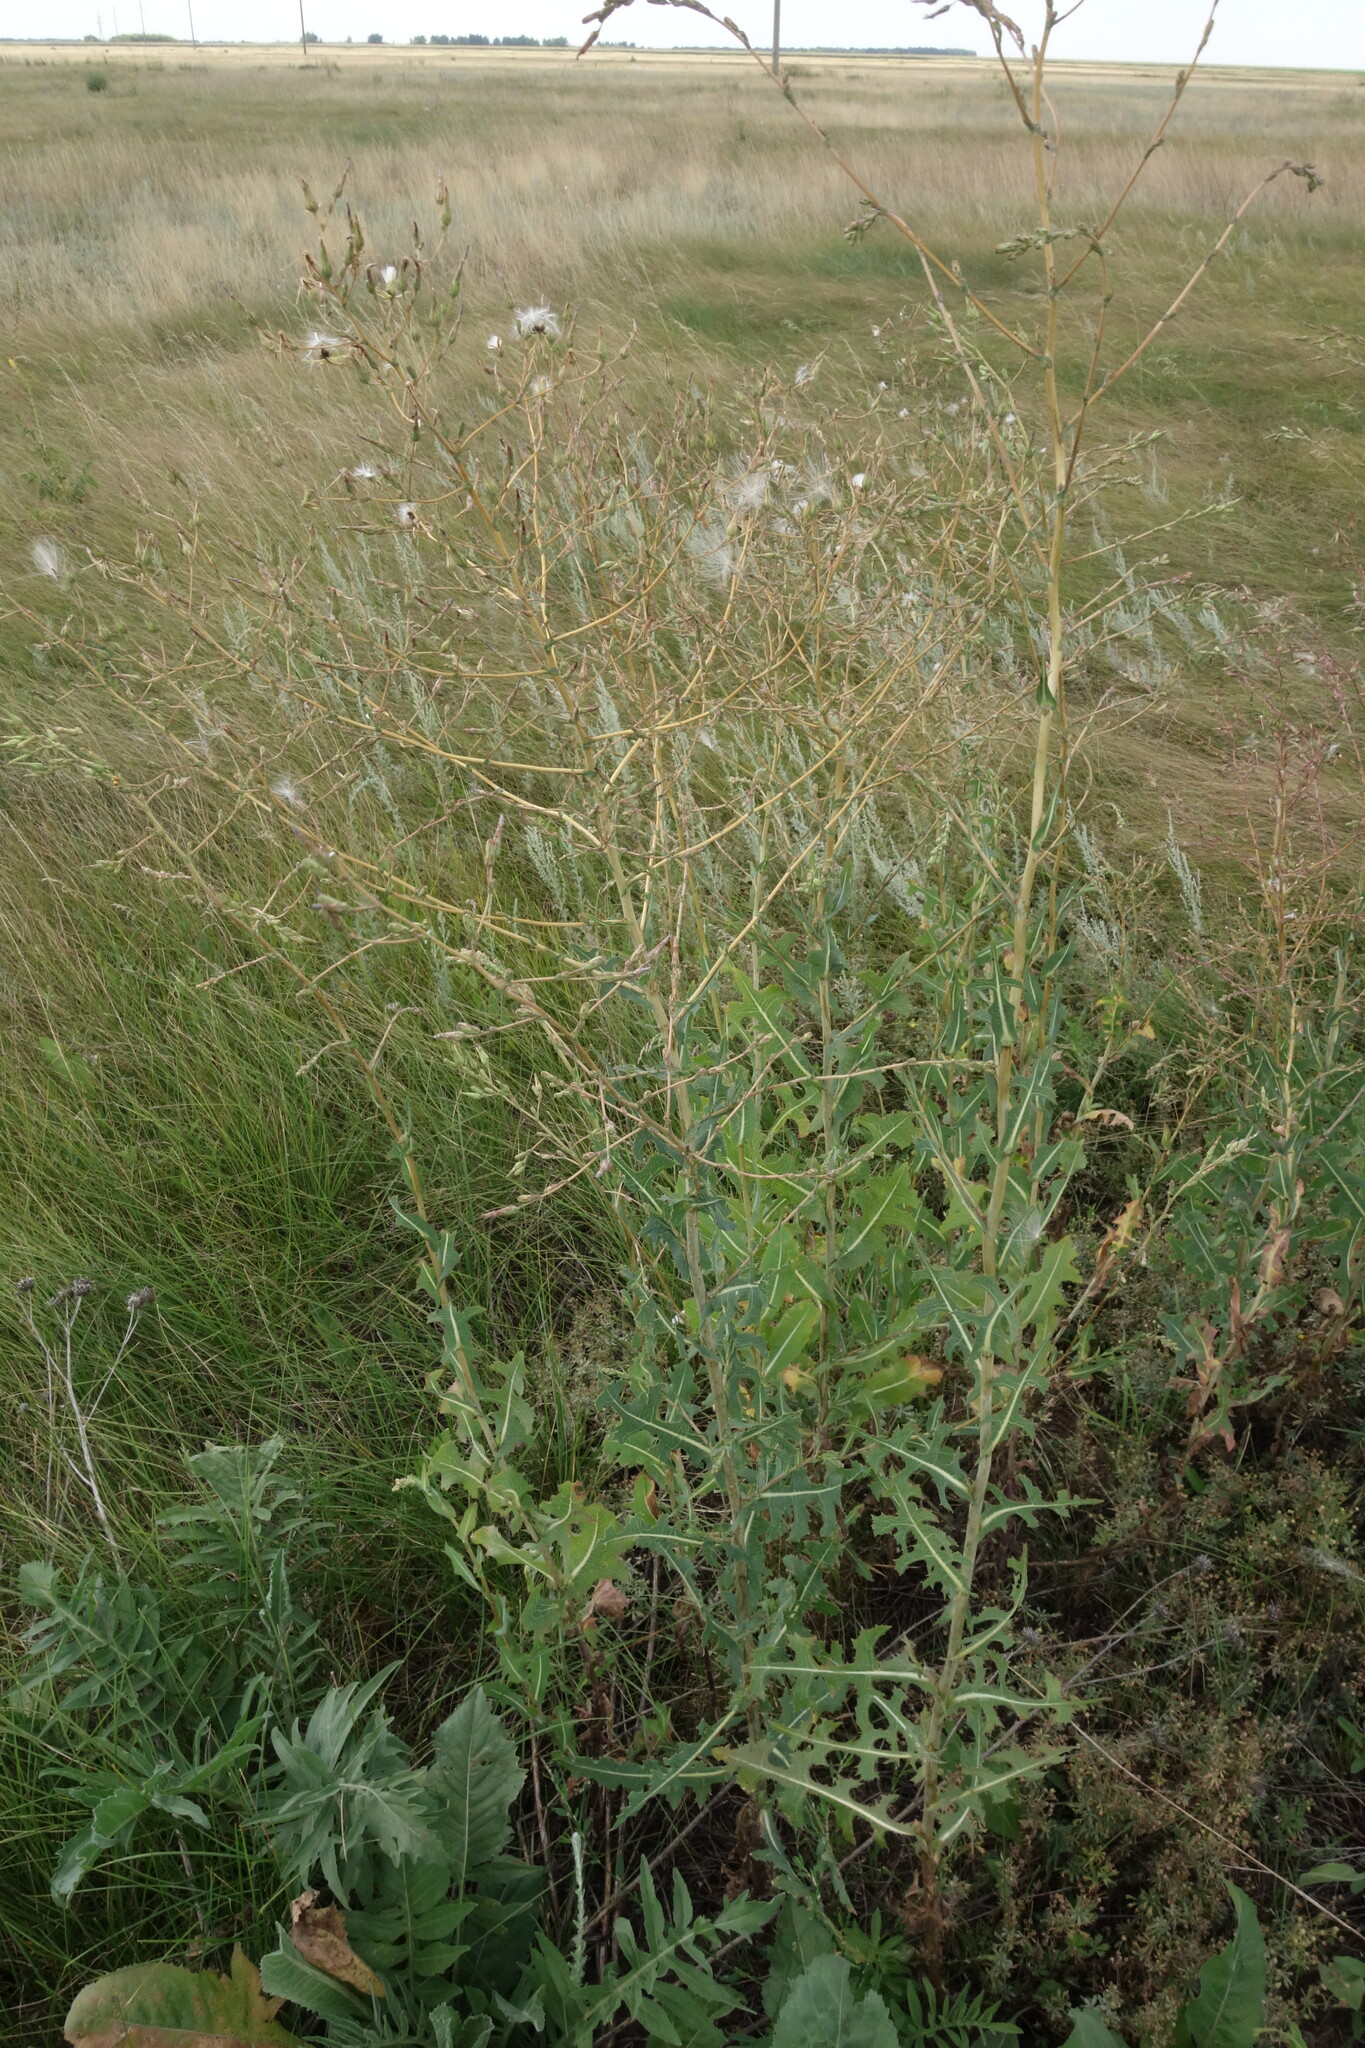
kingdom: Plantae
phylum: Tracheophyta
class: Magnoliopsida
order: Asterales
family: Asteraceae
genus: Lactuca
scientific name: Lactuca serriola
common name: Prickly lettuce
